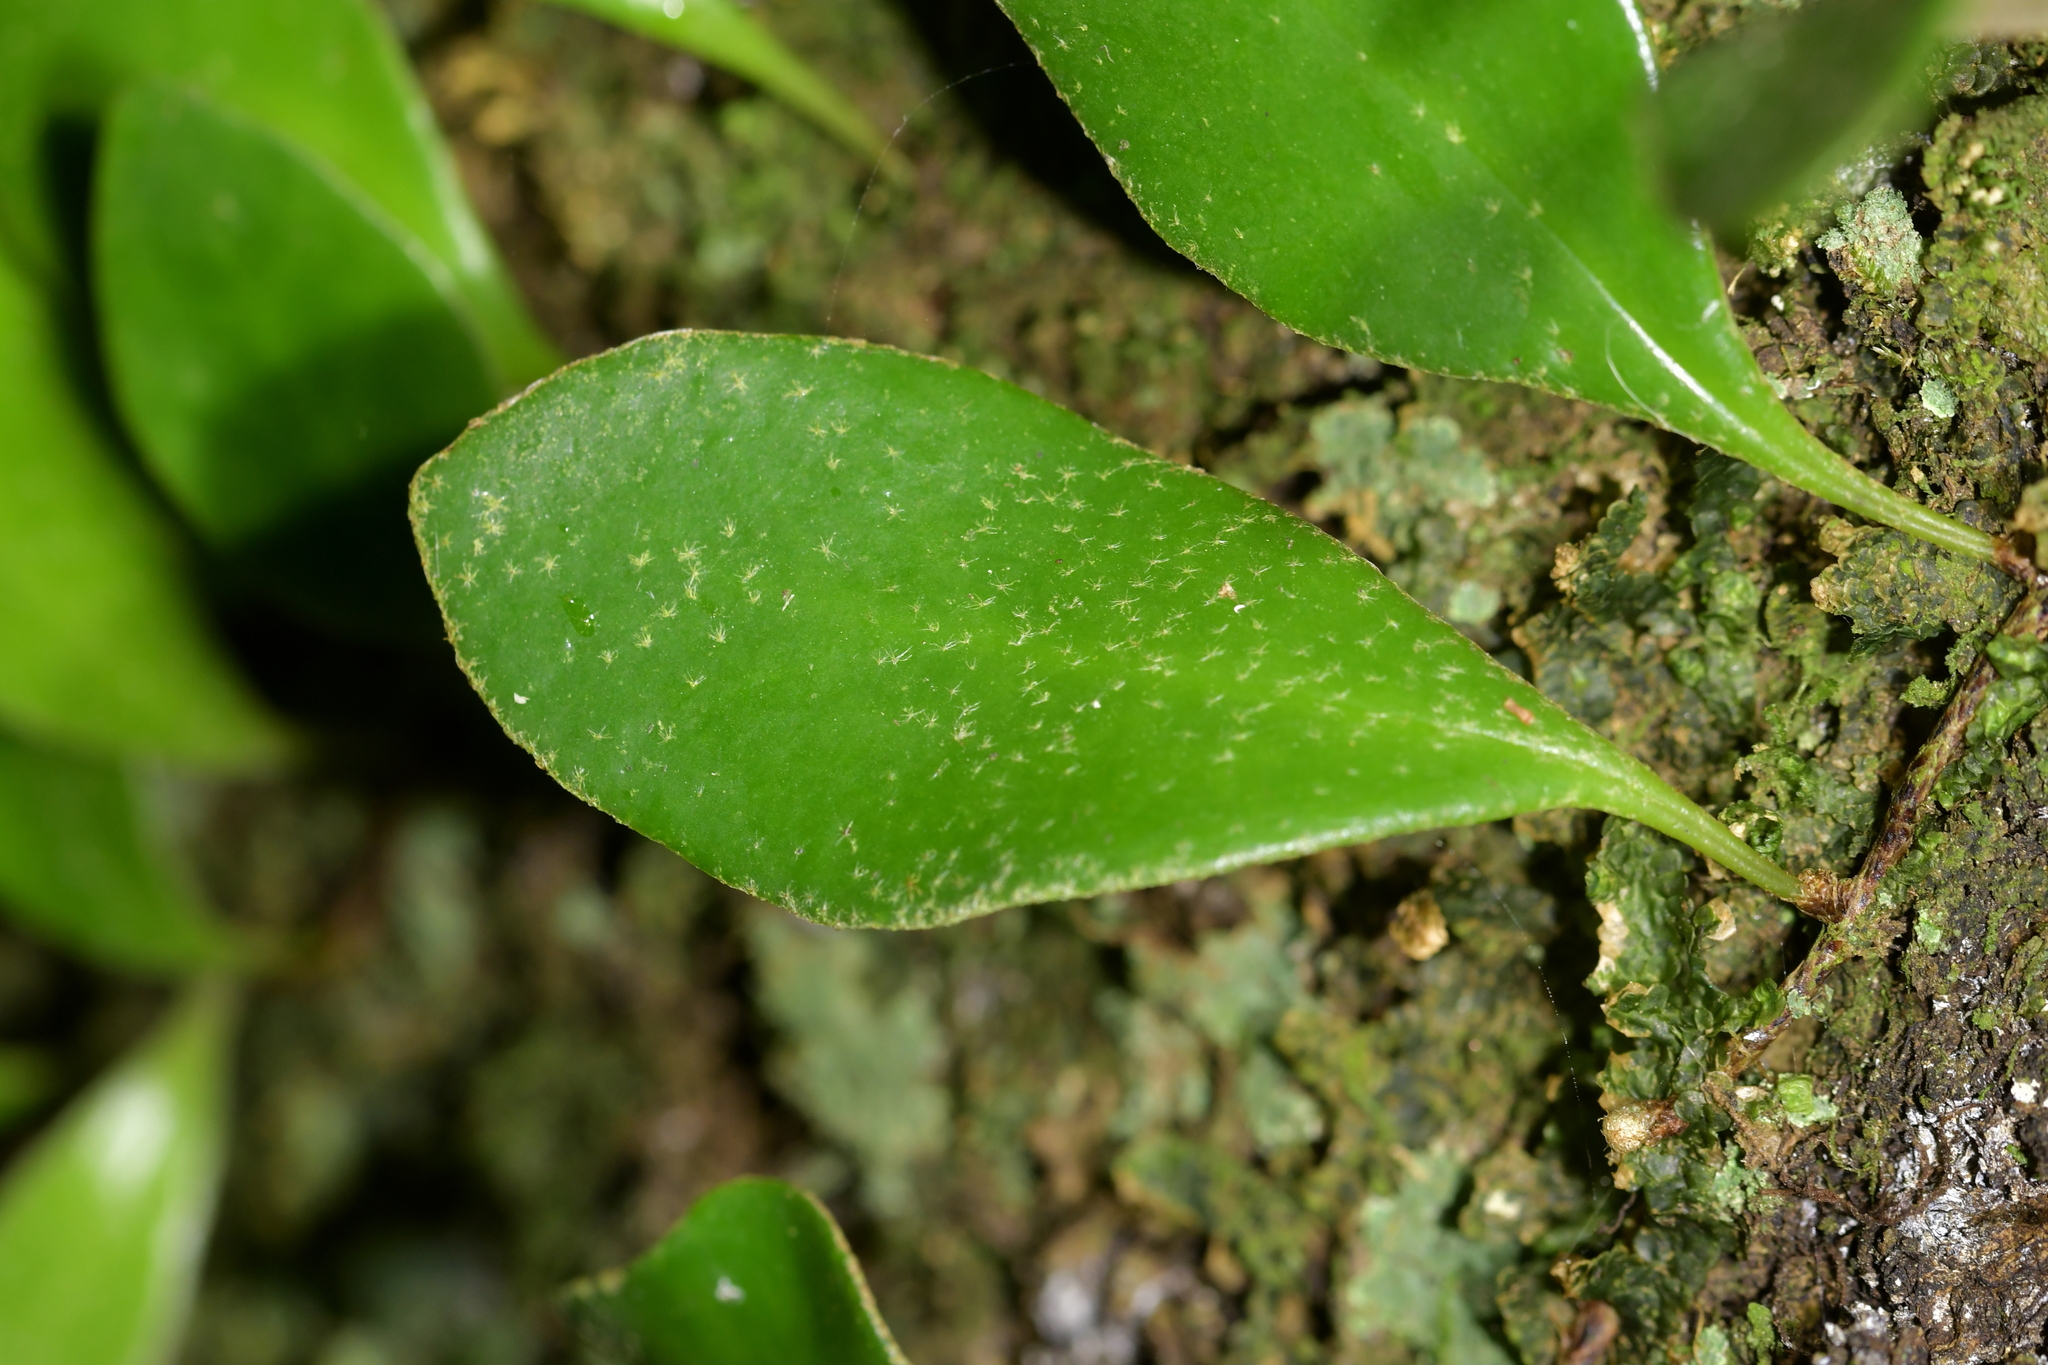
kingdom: Plantae
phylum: Tracheophyta
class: Polypodiopsida
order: Polypodiales
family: Polypodiaceae
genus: Pyrrosia
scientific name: Pyrrosia eleagnifolia
